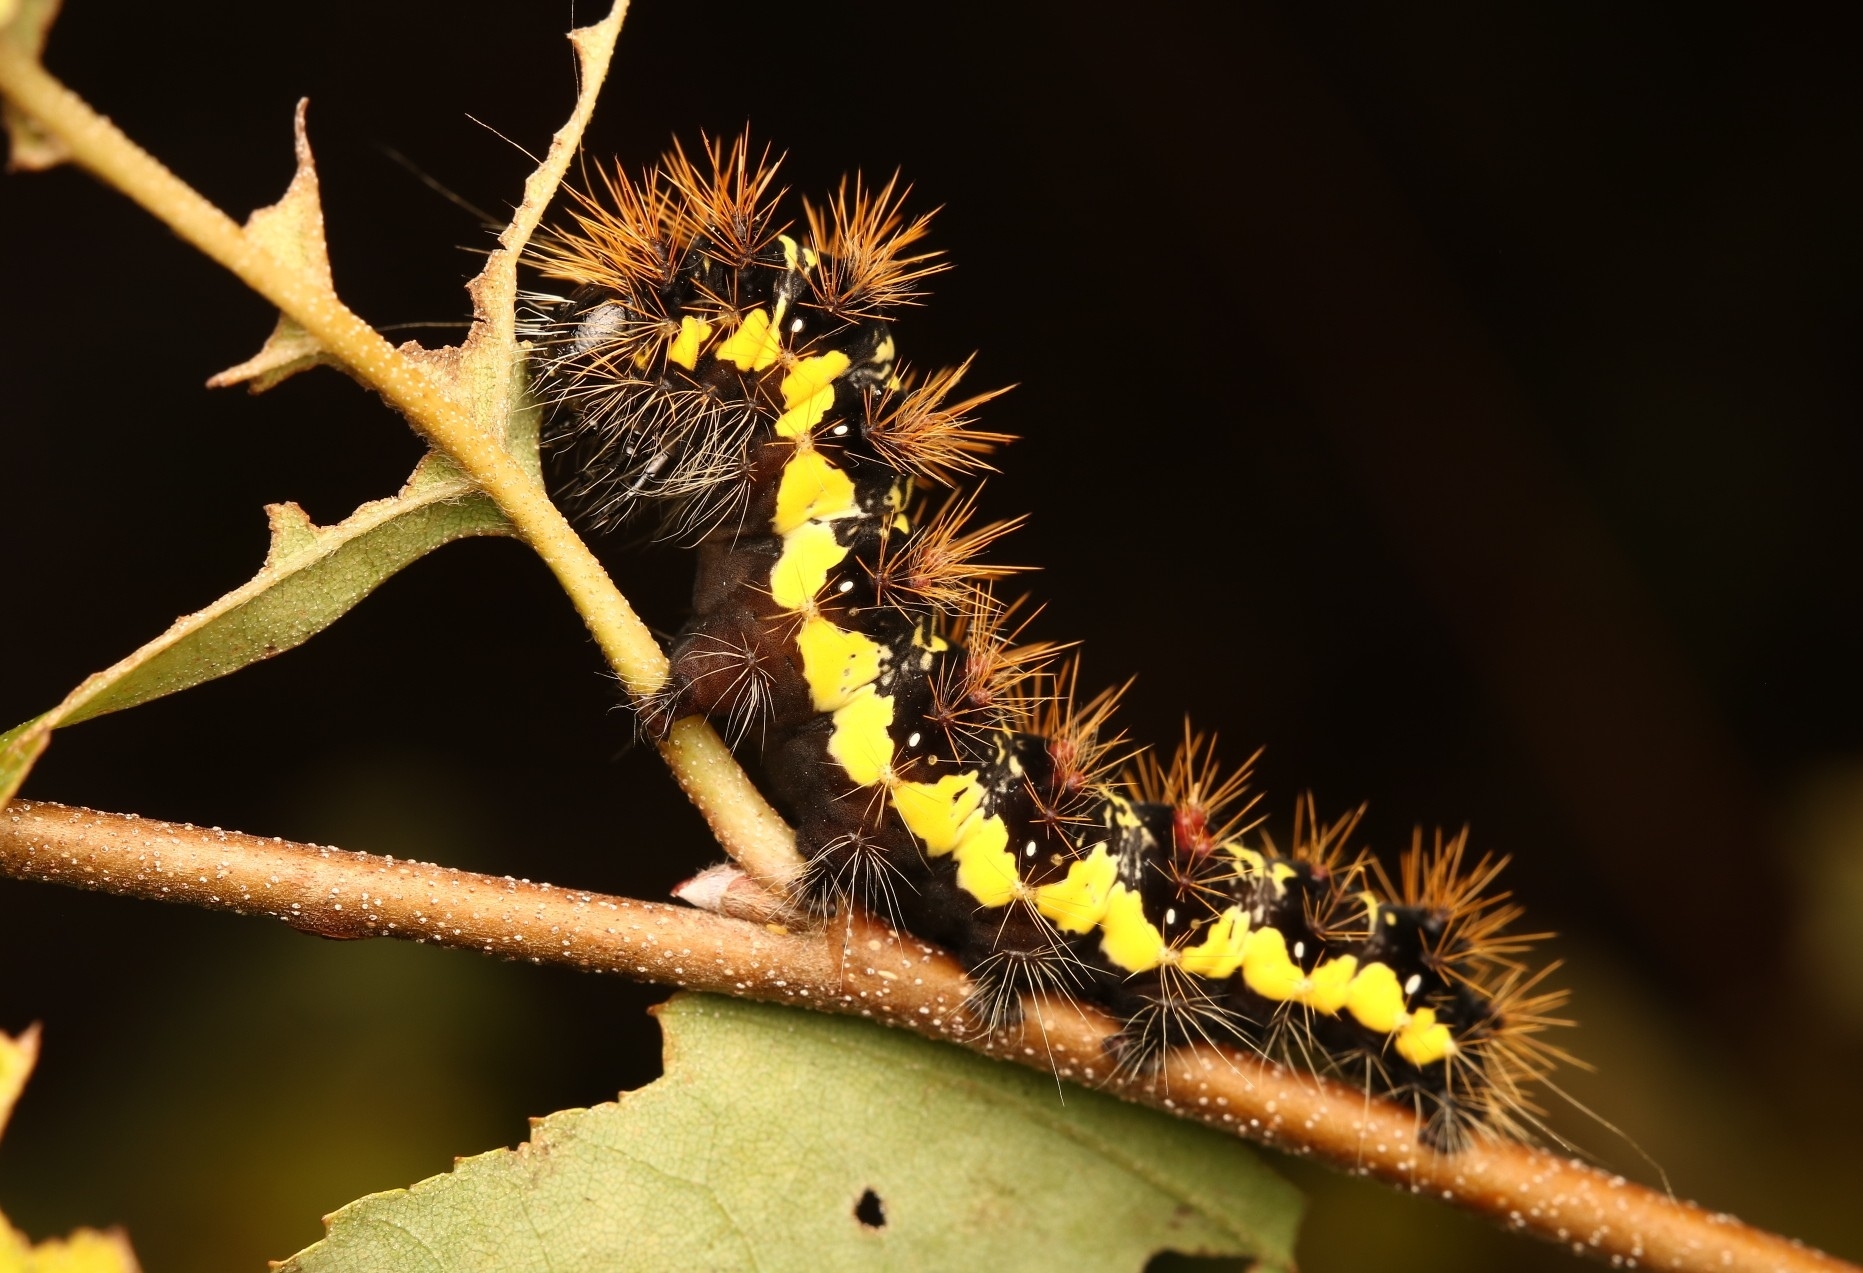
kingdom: Animalia
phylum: Arthropoda
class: Insecta
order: Lepidoptera
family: Noctuidae
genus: Acronicta
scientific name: Acronicta oblinita
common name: Smeared dagger
